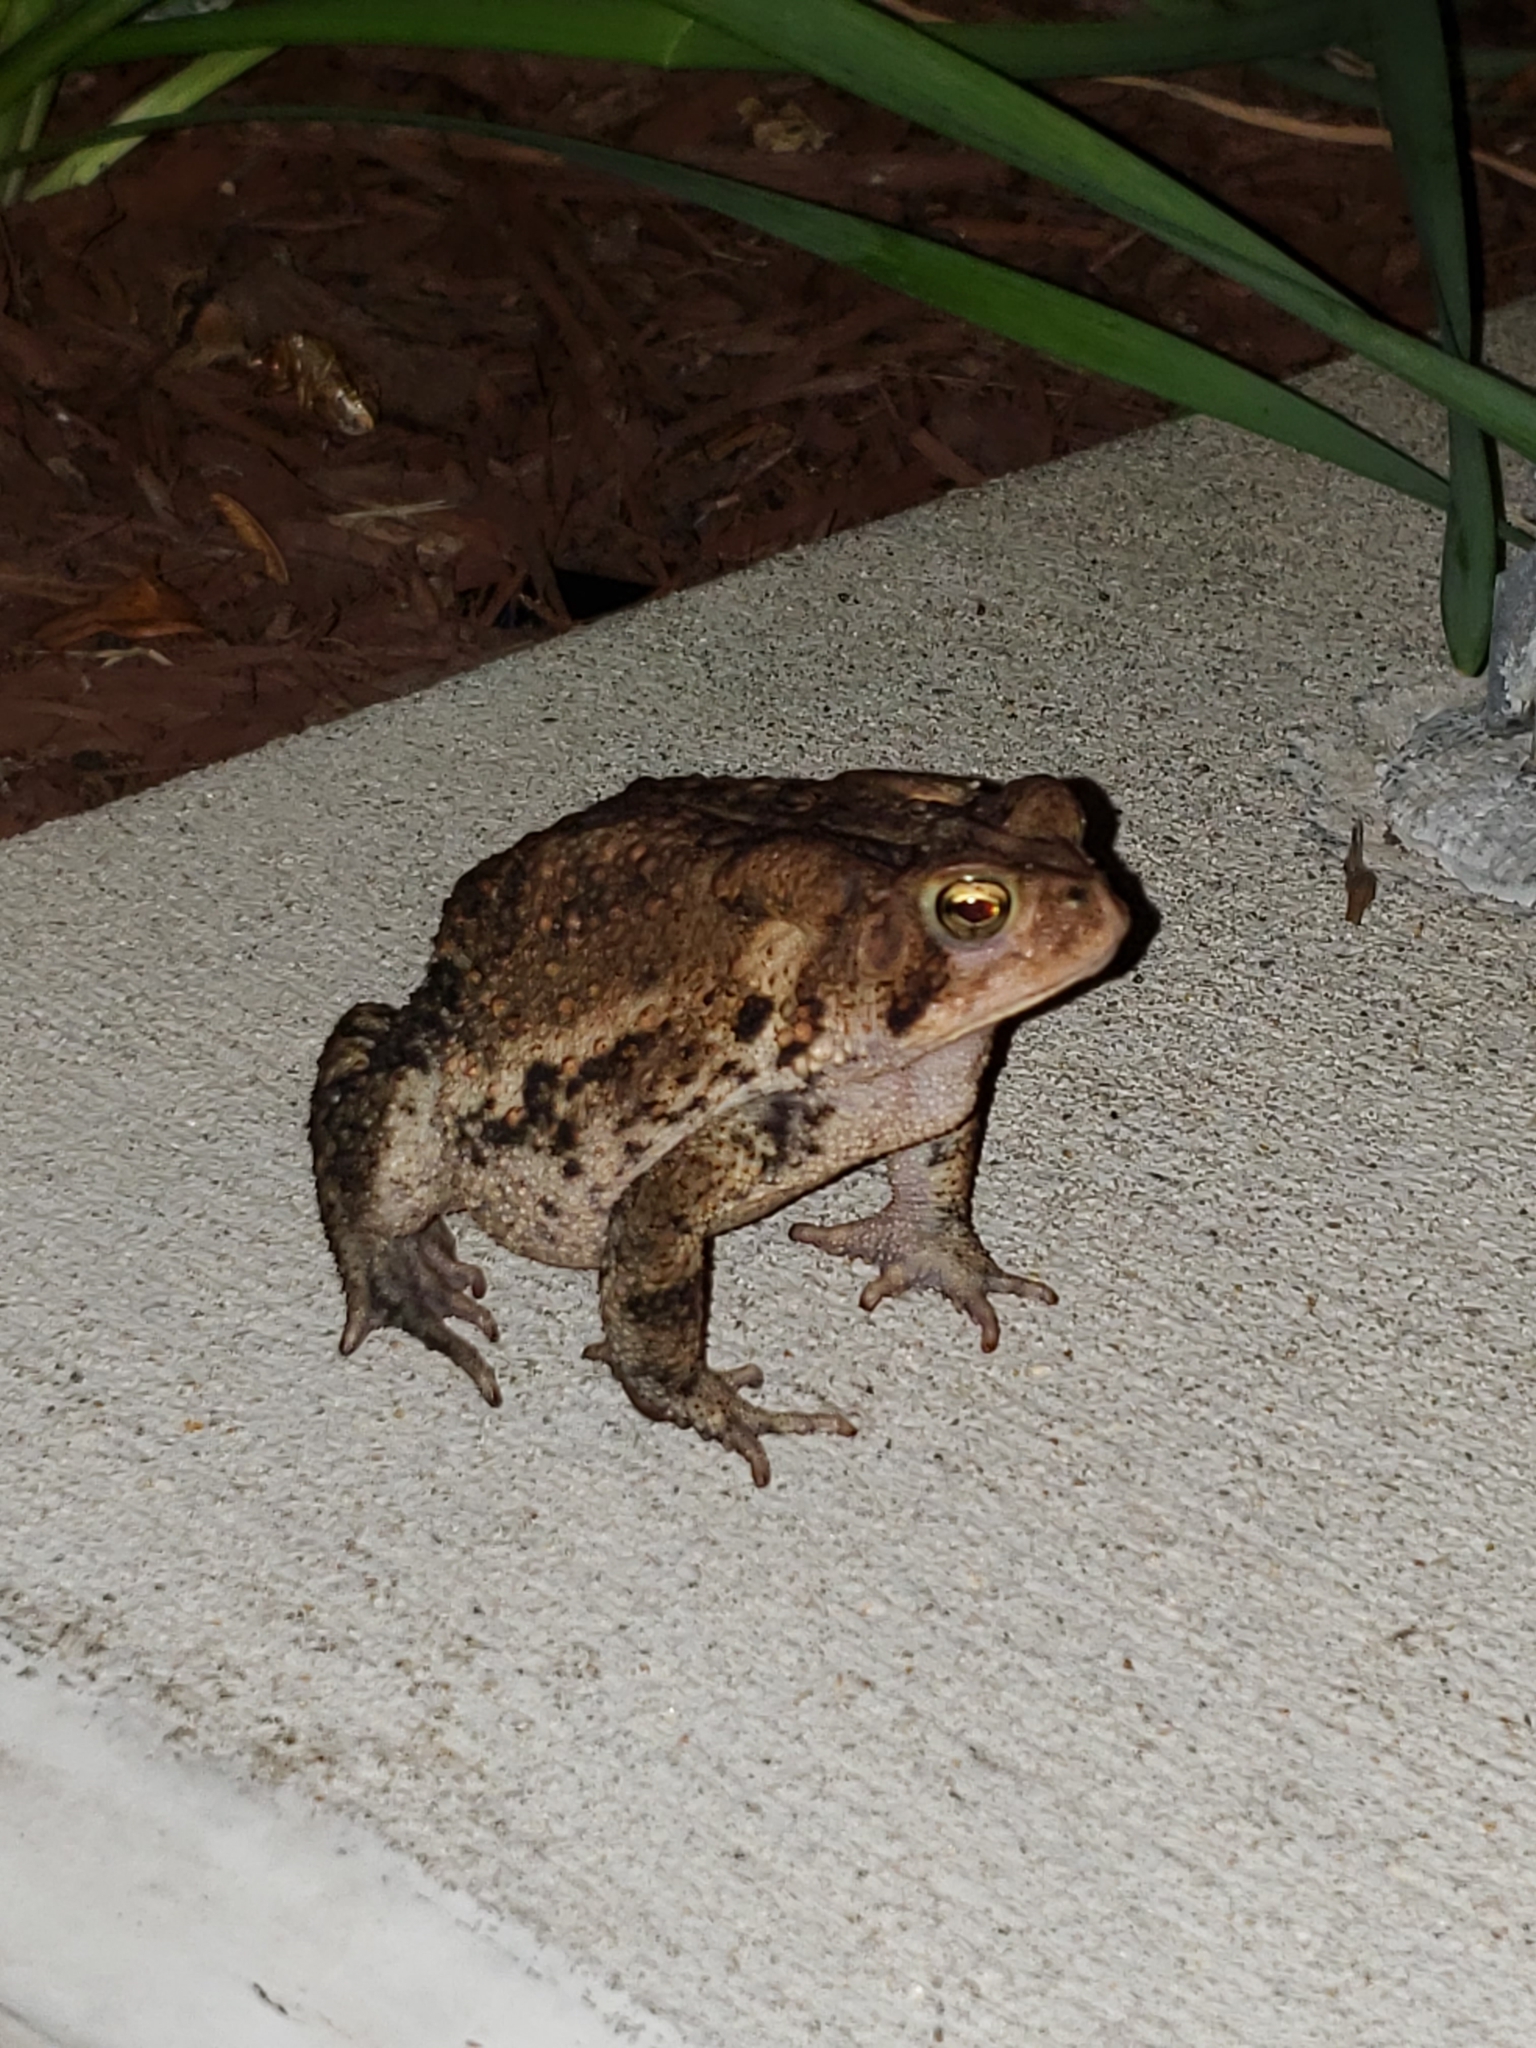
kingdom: Animalia
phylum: Chordata
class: Amphibia
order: Anura
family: Bufonidae
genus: Anaxyrus
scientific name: Anaxyrus americanus
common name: American toad
